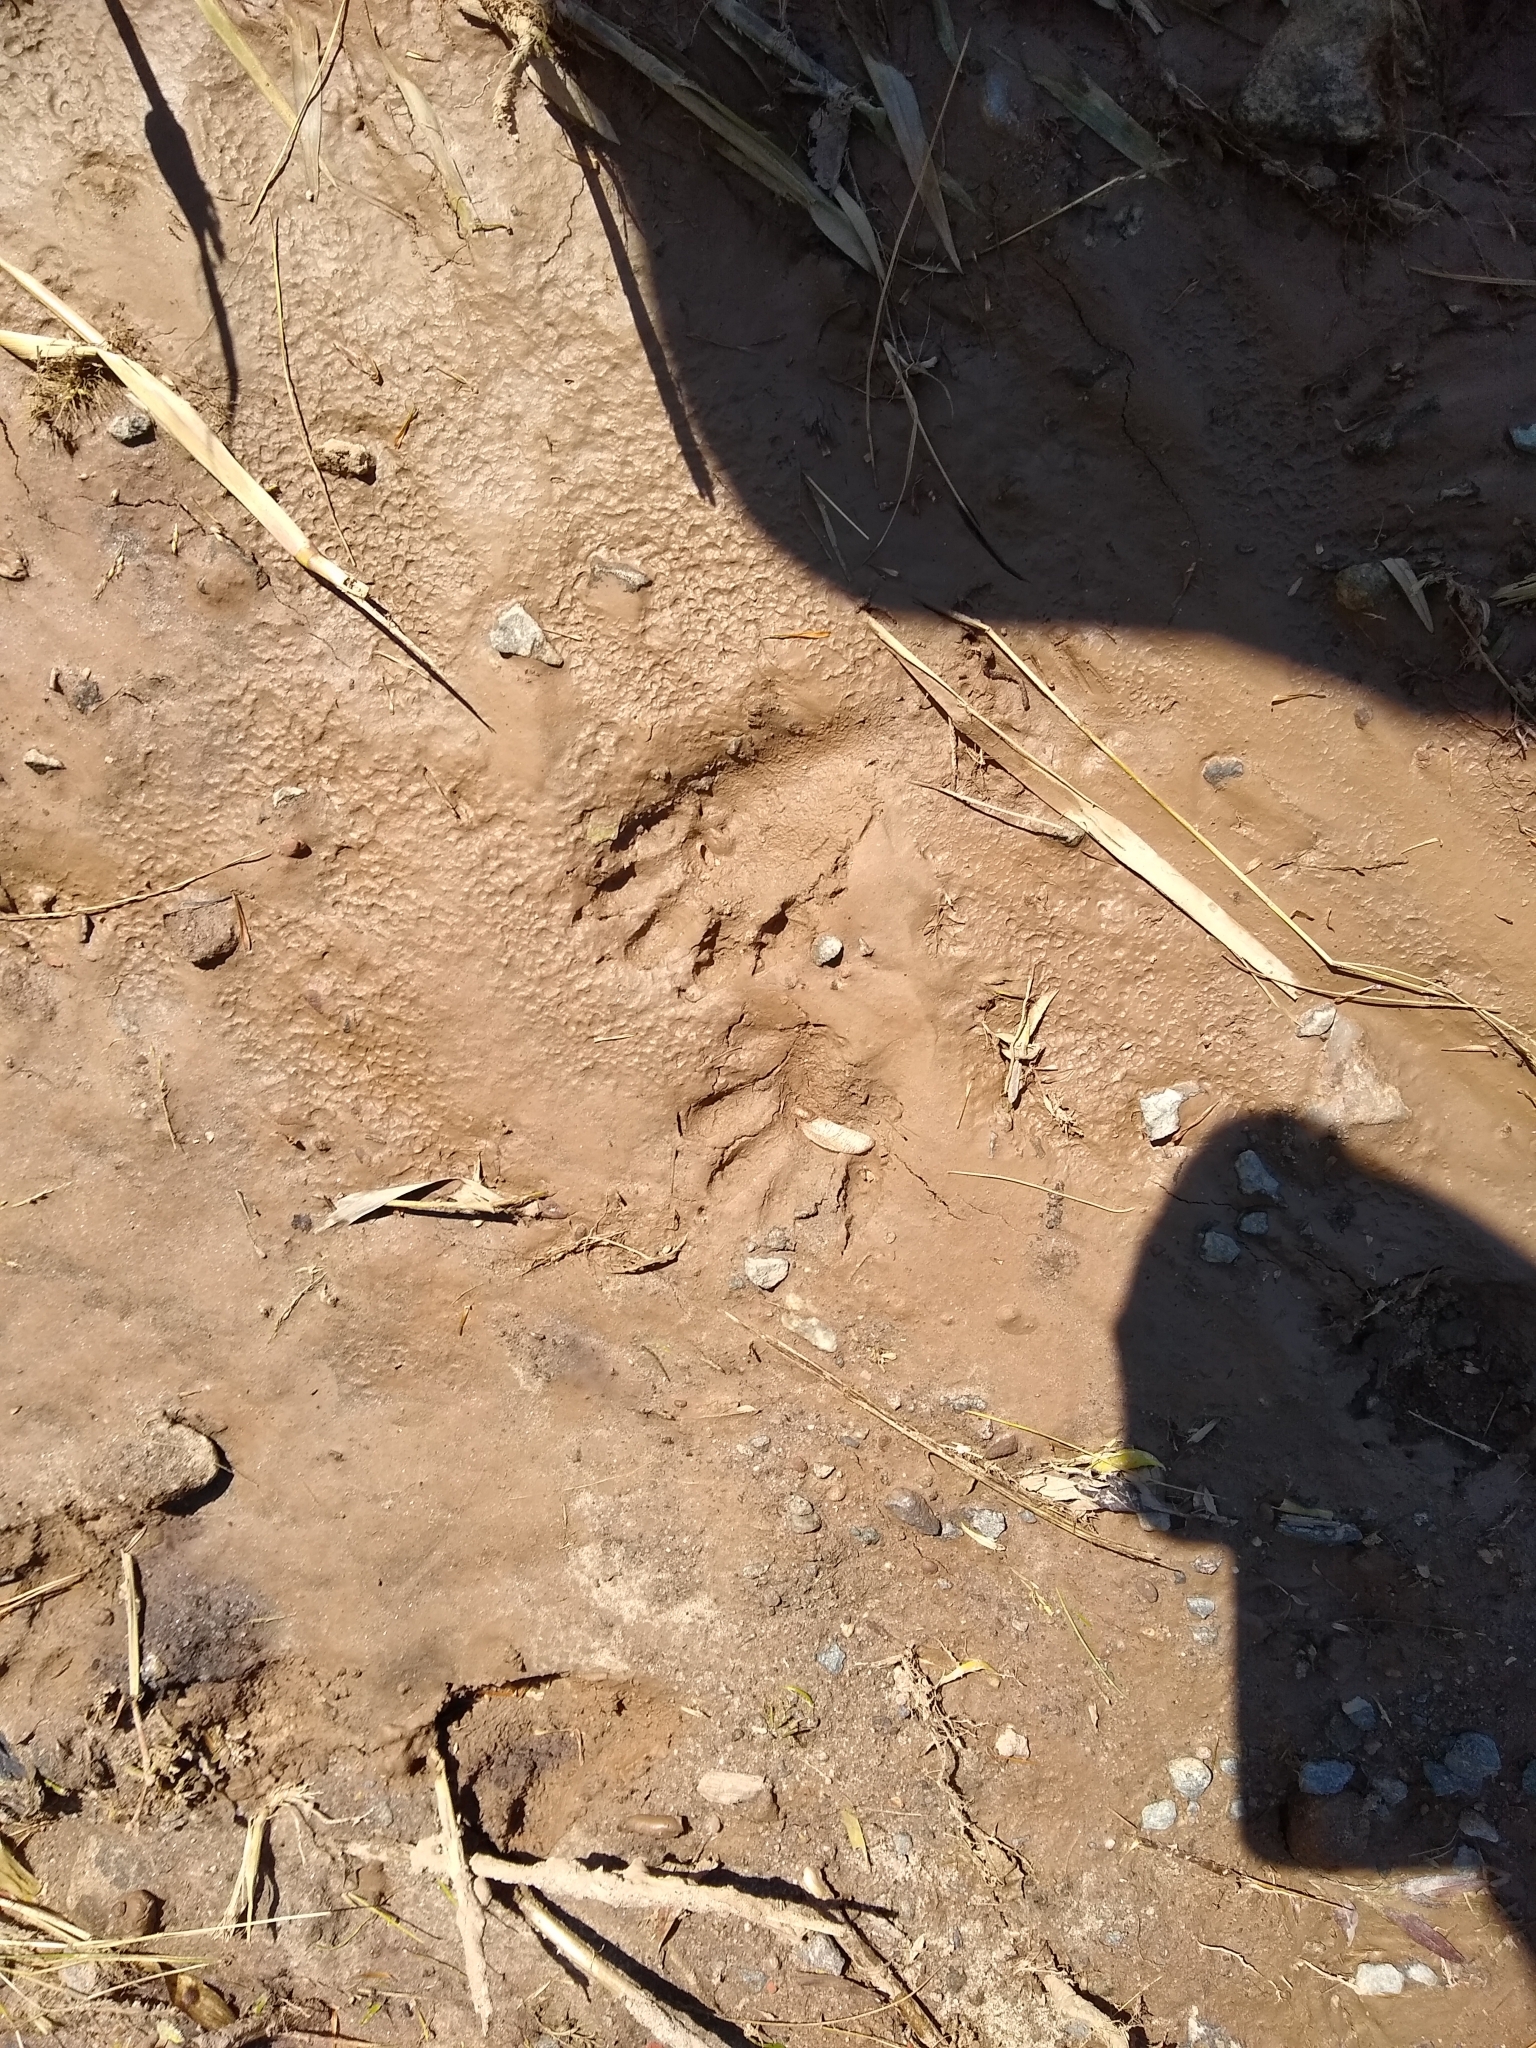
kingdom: Animalia
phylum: Chordata
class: Mammalia
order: Carnivora
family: Procyonidae
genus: Procyon
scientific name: Procyon lotor
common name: Raccoon
